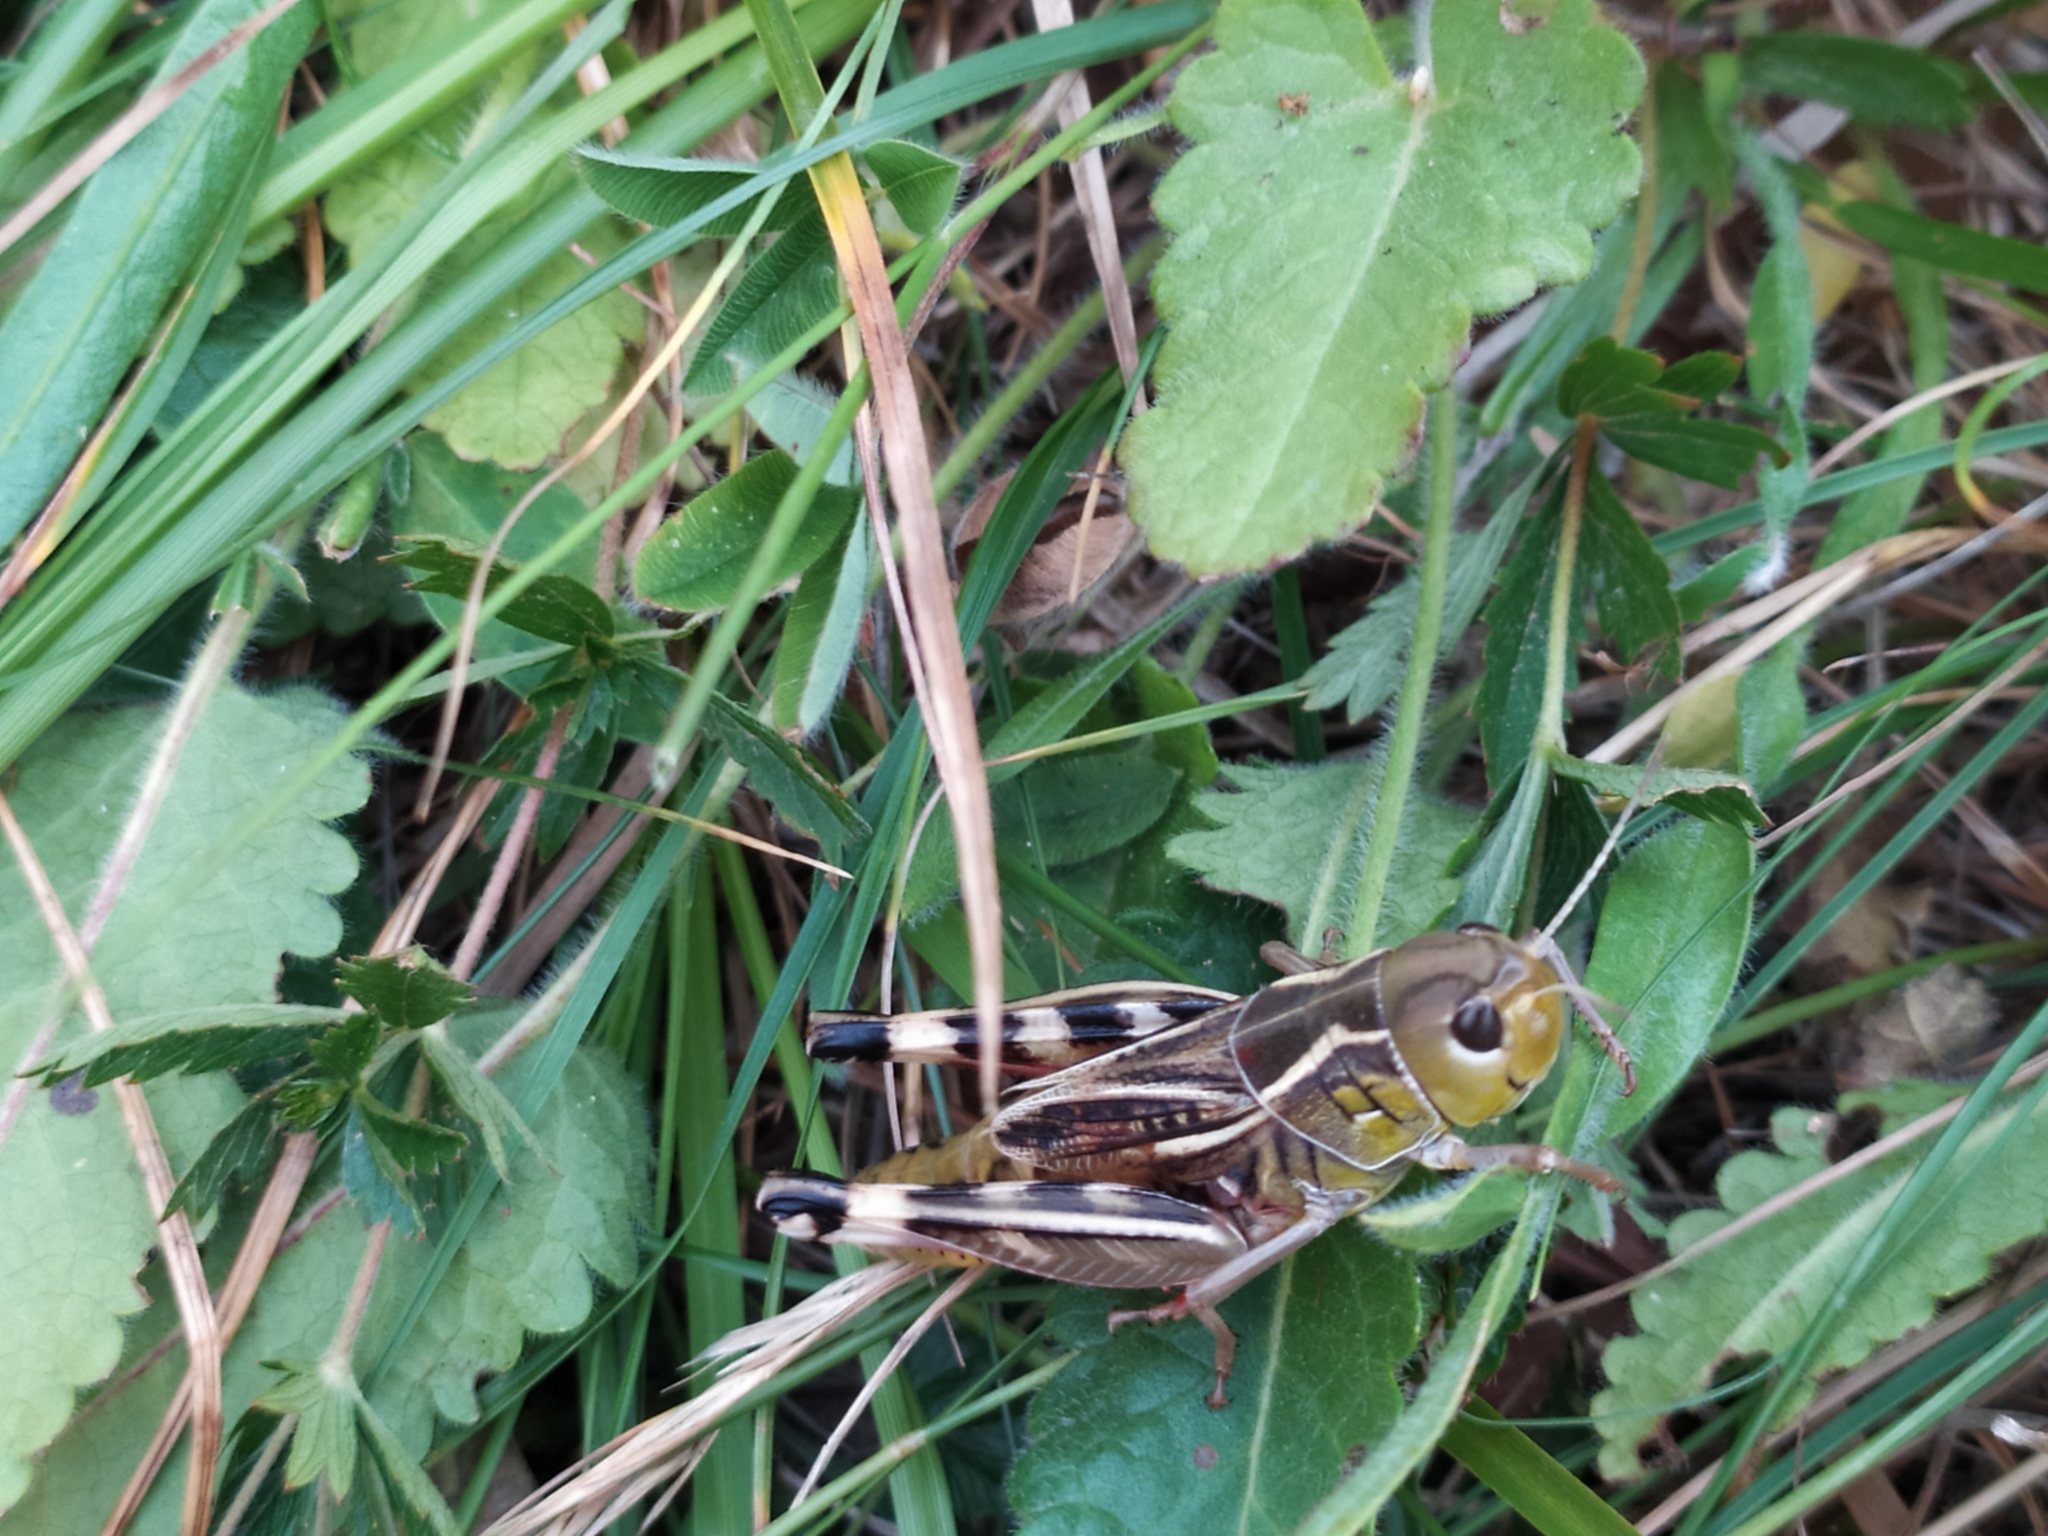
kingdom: Animalia
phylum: Arthropoda
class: Insecta
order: Orthoptera
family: Acrididae
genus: Arcyptera
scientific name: Arcyptera brevipennis
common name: Western banded grasshopper
